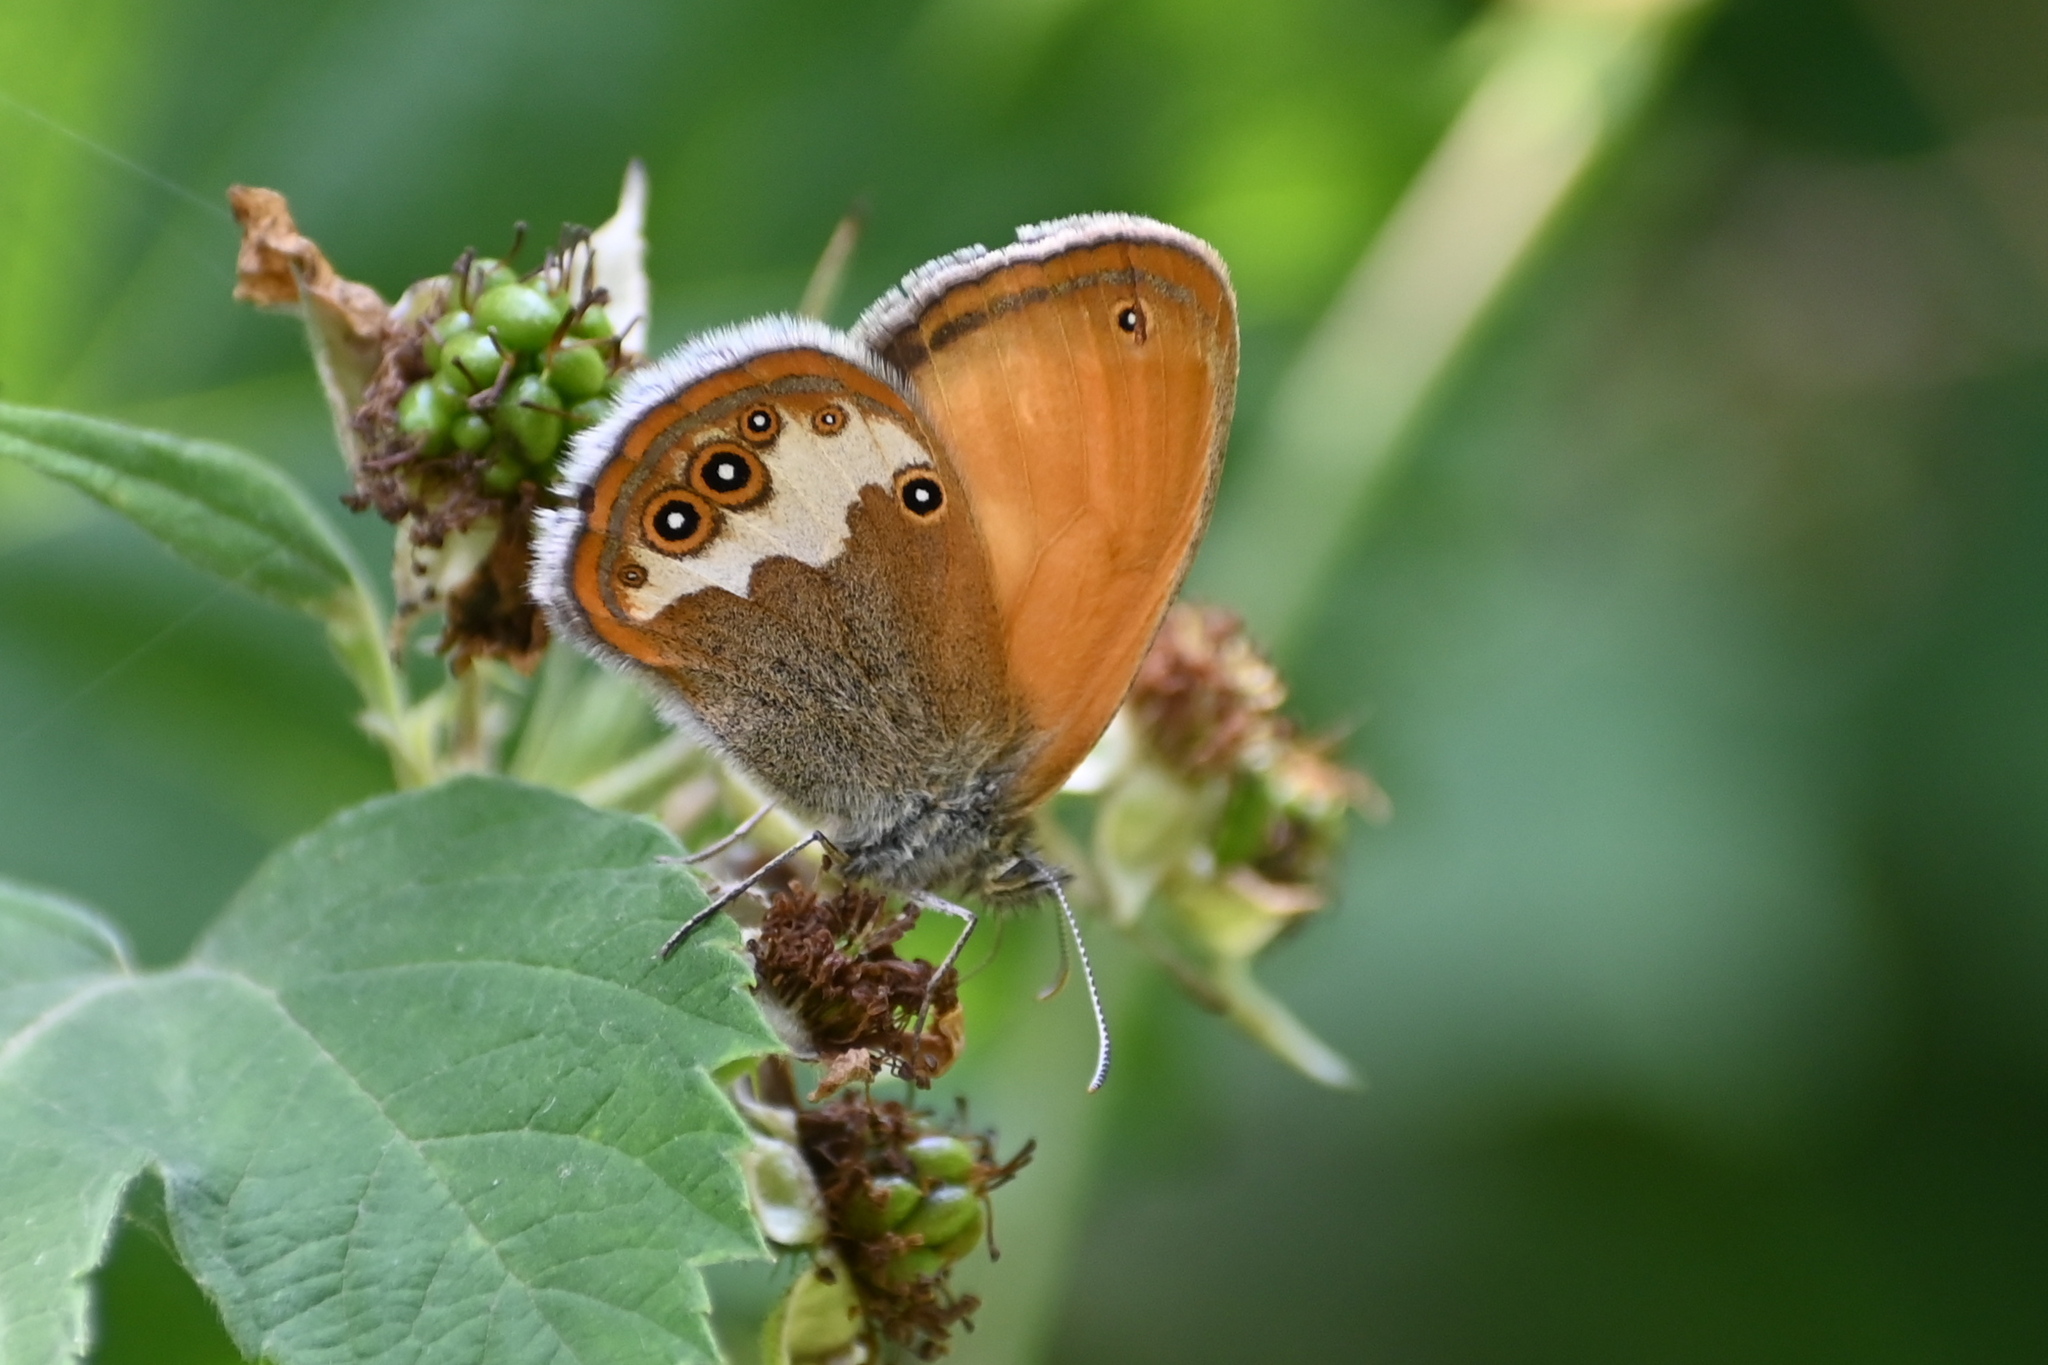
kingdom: Animalia
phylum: Arthropoda
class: Insecta
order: Lepidoptera
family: Nymphalidae
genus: Coenonympha
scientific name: Coenonympha arcania
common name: Pearly heath
